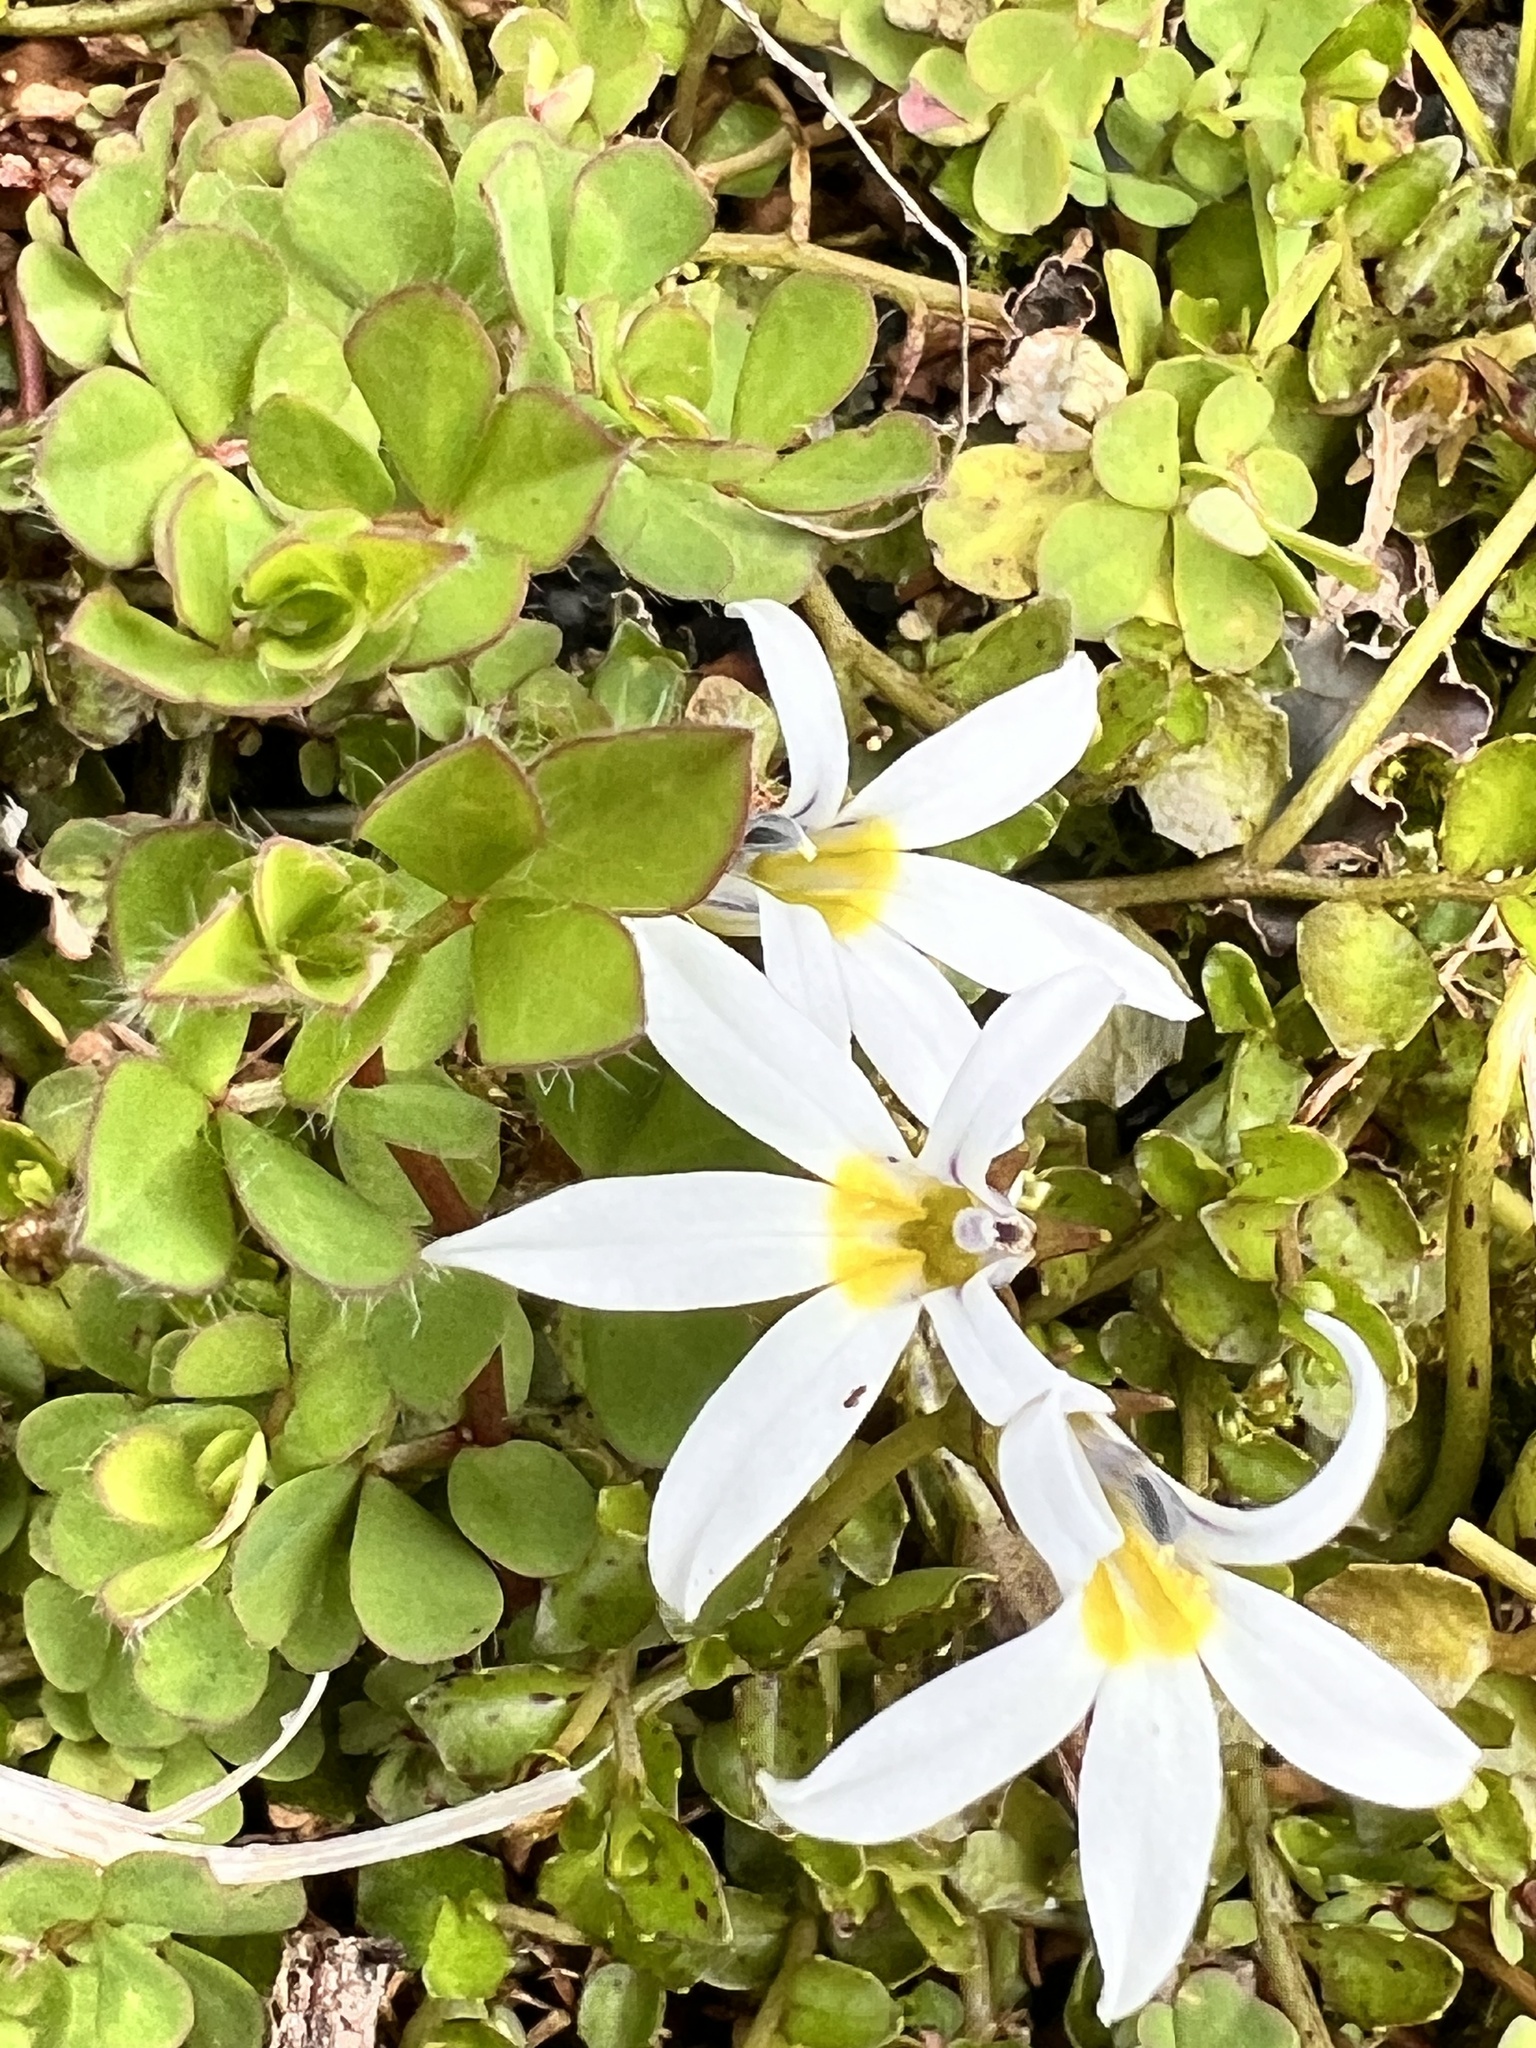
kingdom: Plantae
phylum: Tracheophyta
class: Magnoliopsida
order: Asterales
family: Campanulaceae
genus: Lobelia
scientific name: Lobelia angulata
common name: Lawn lobelia
